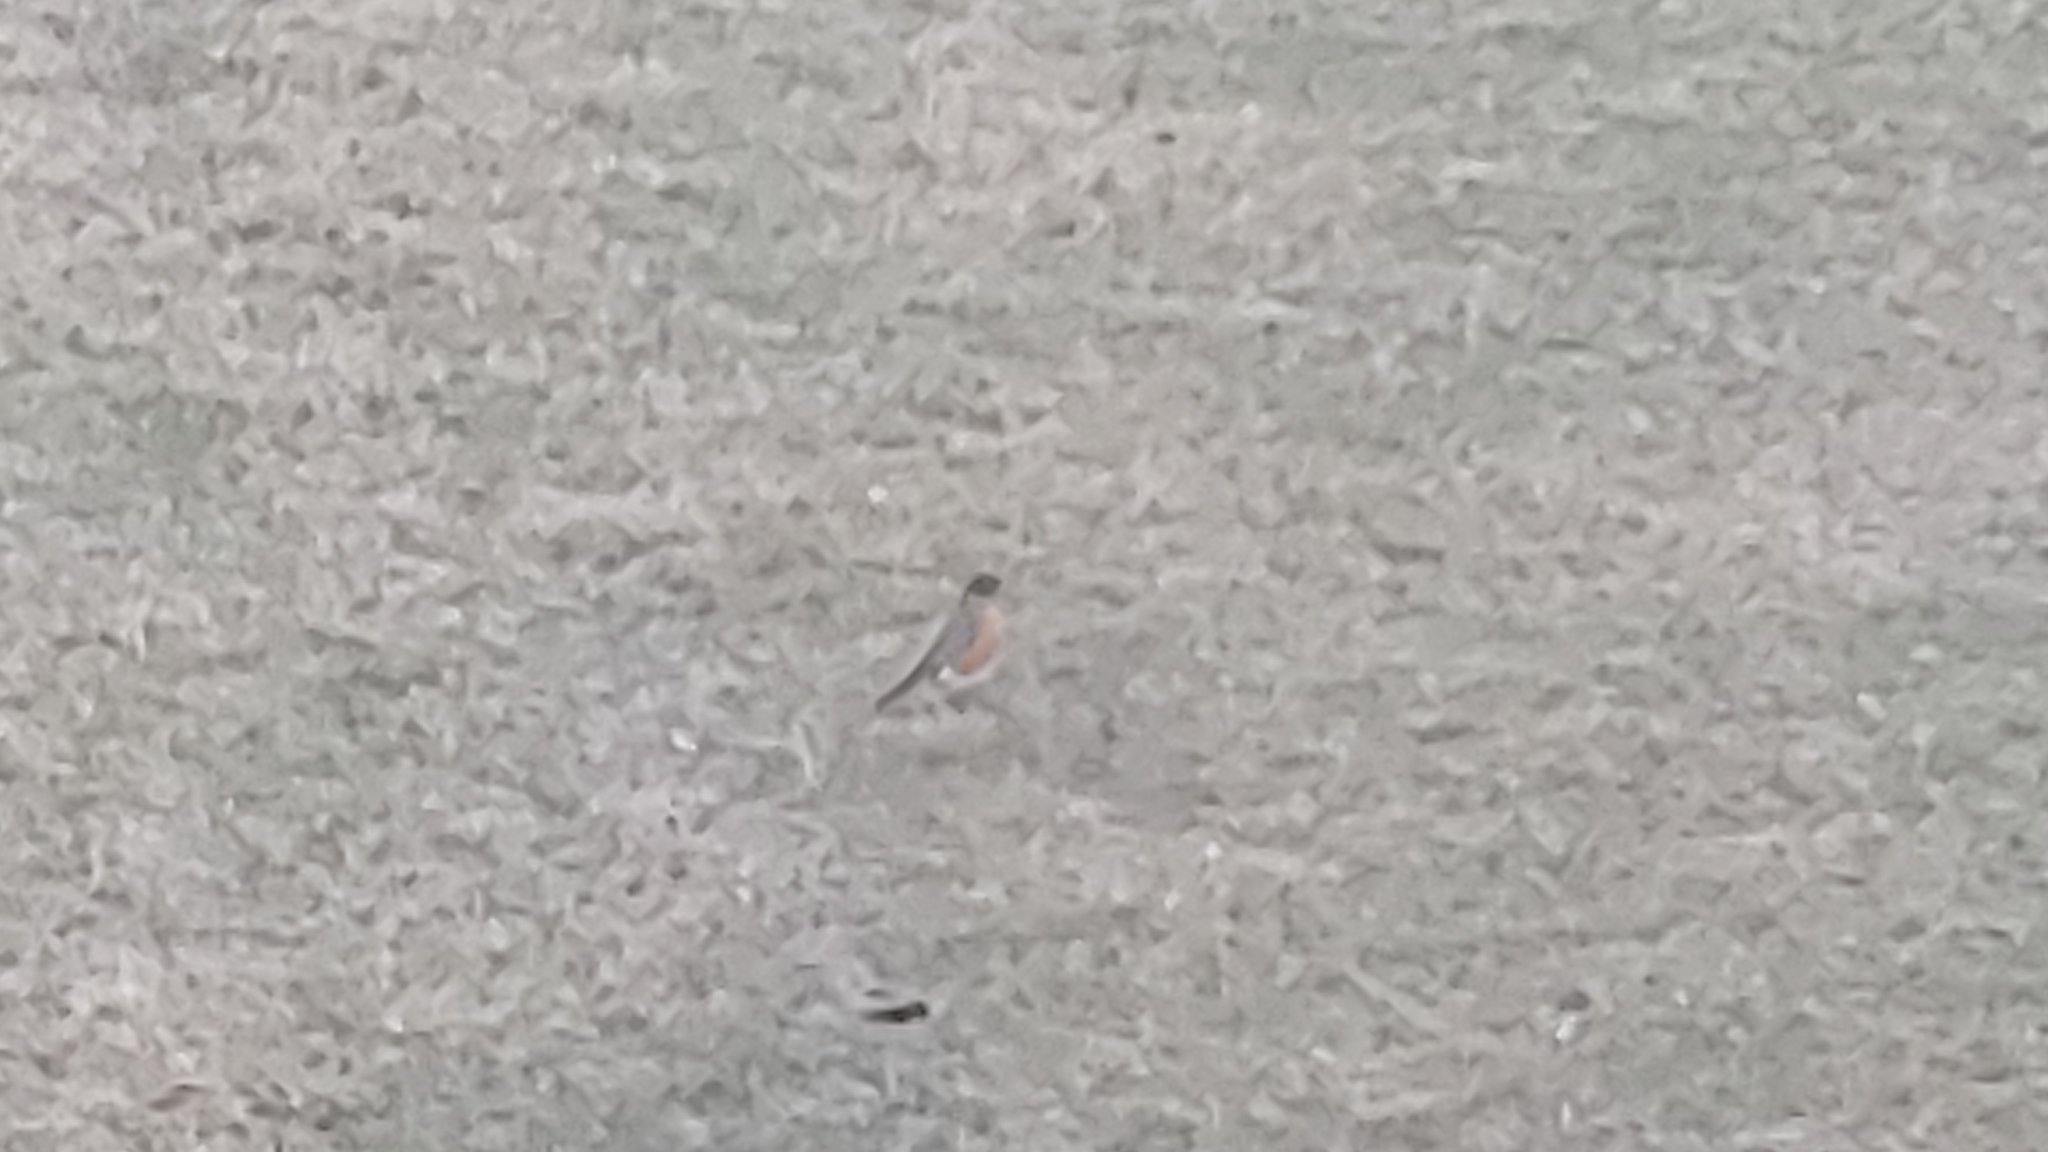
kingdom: Animalia
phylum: Chordata
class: Aves
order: Passeriformes
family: Turdidae
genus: Turdus
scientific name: Turdus migratorius
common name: American robin
